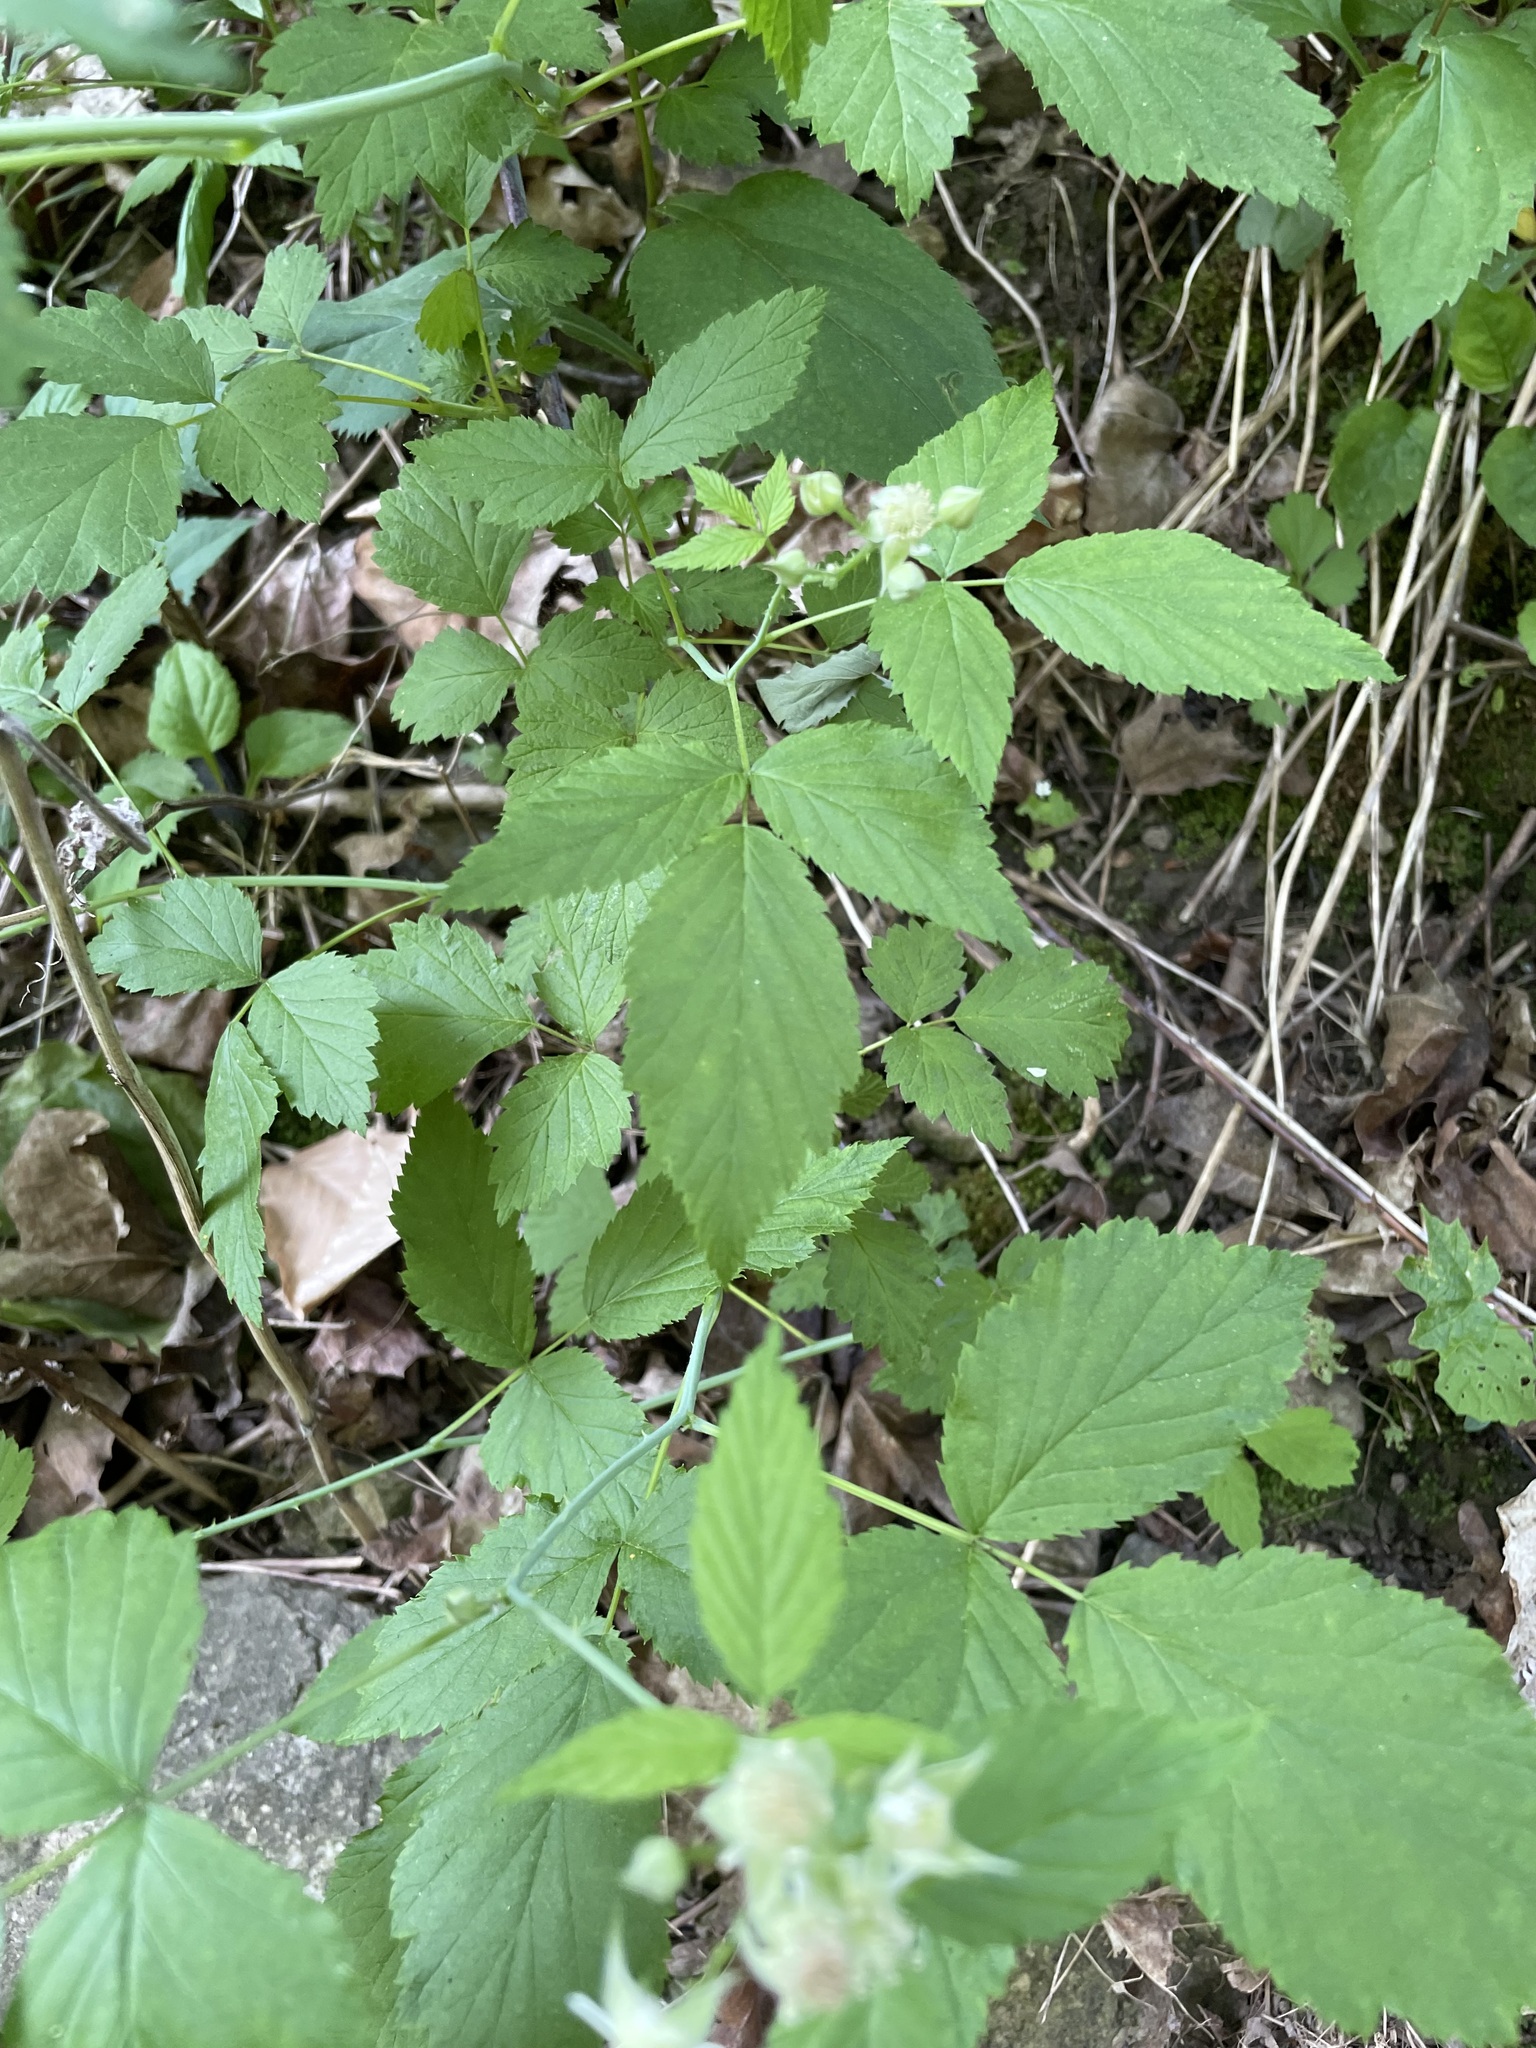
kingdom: Plantae
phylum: Tracheophyta
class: Magnoliopsida
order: Rosales
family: Rosaceae
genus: Rubus
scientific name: Rubus occidentalis
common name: Black raspberry
